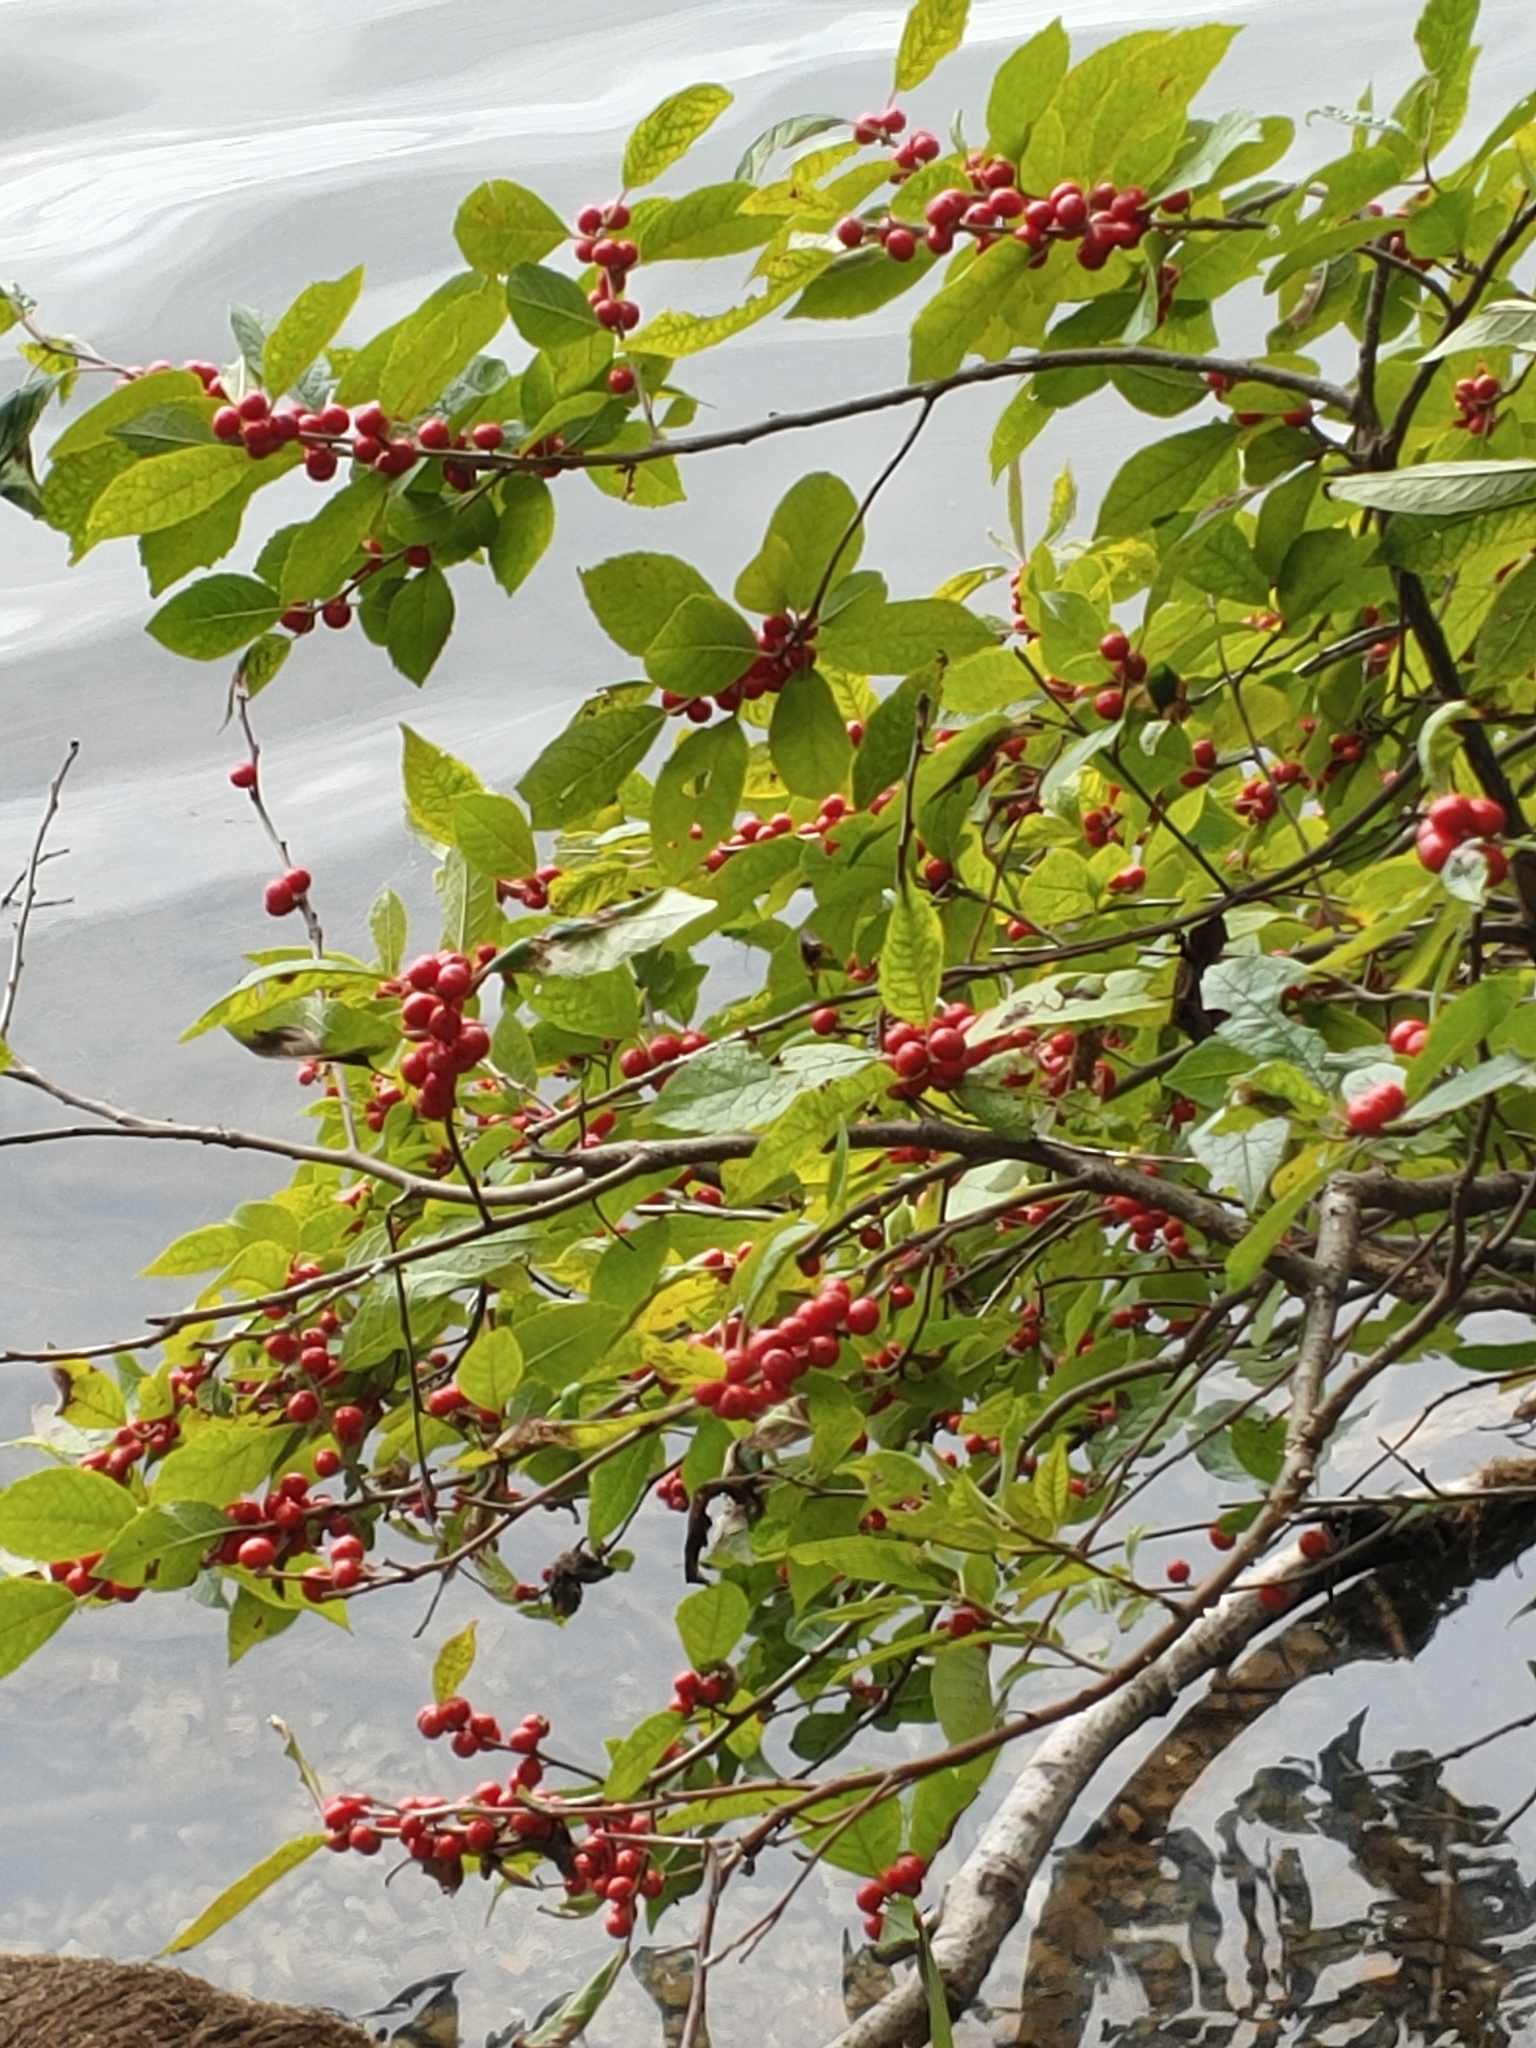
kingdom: Plantae
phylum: Tracheophyta
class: Magnoliopsida
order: Aquifoliales
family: Aquifoliaceae
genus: Ilex
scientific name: Ilex verticillata
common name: Virginia winterberry
